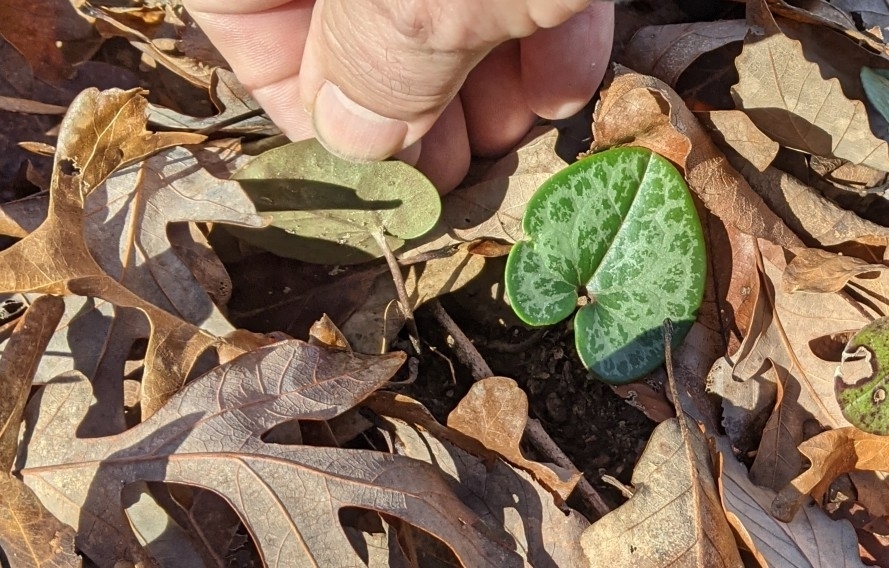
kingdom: Plantae
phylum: Tracheophyta
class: Magnoliopsida
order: Piperales
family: Aristolochiaceae
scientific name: Aristolochiaceae
